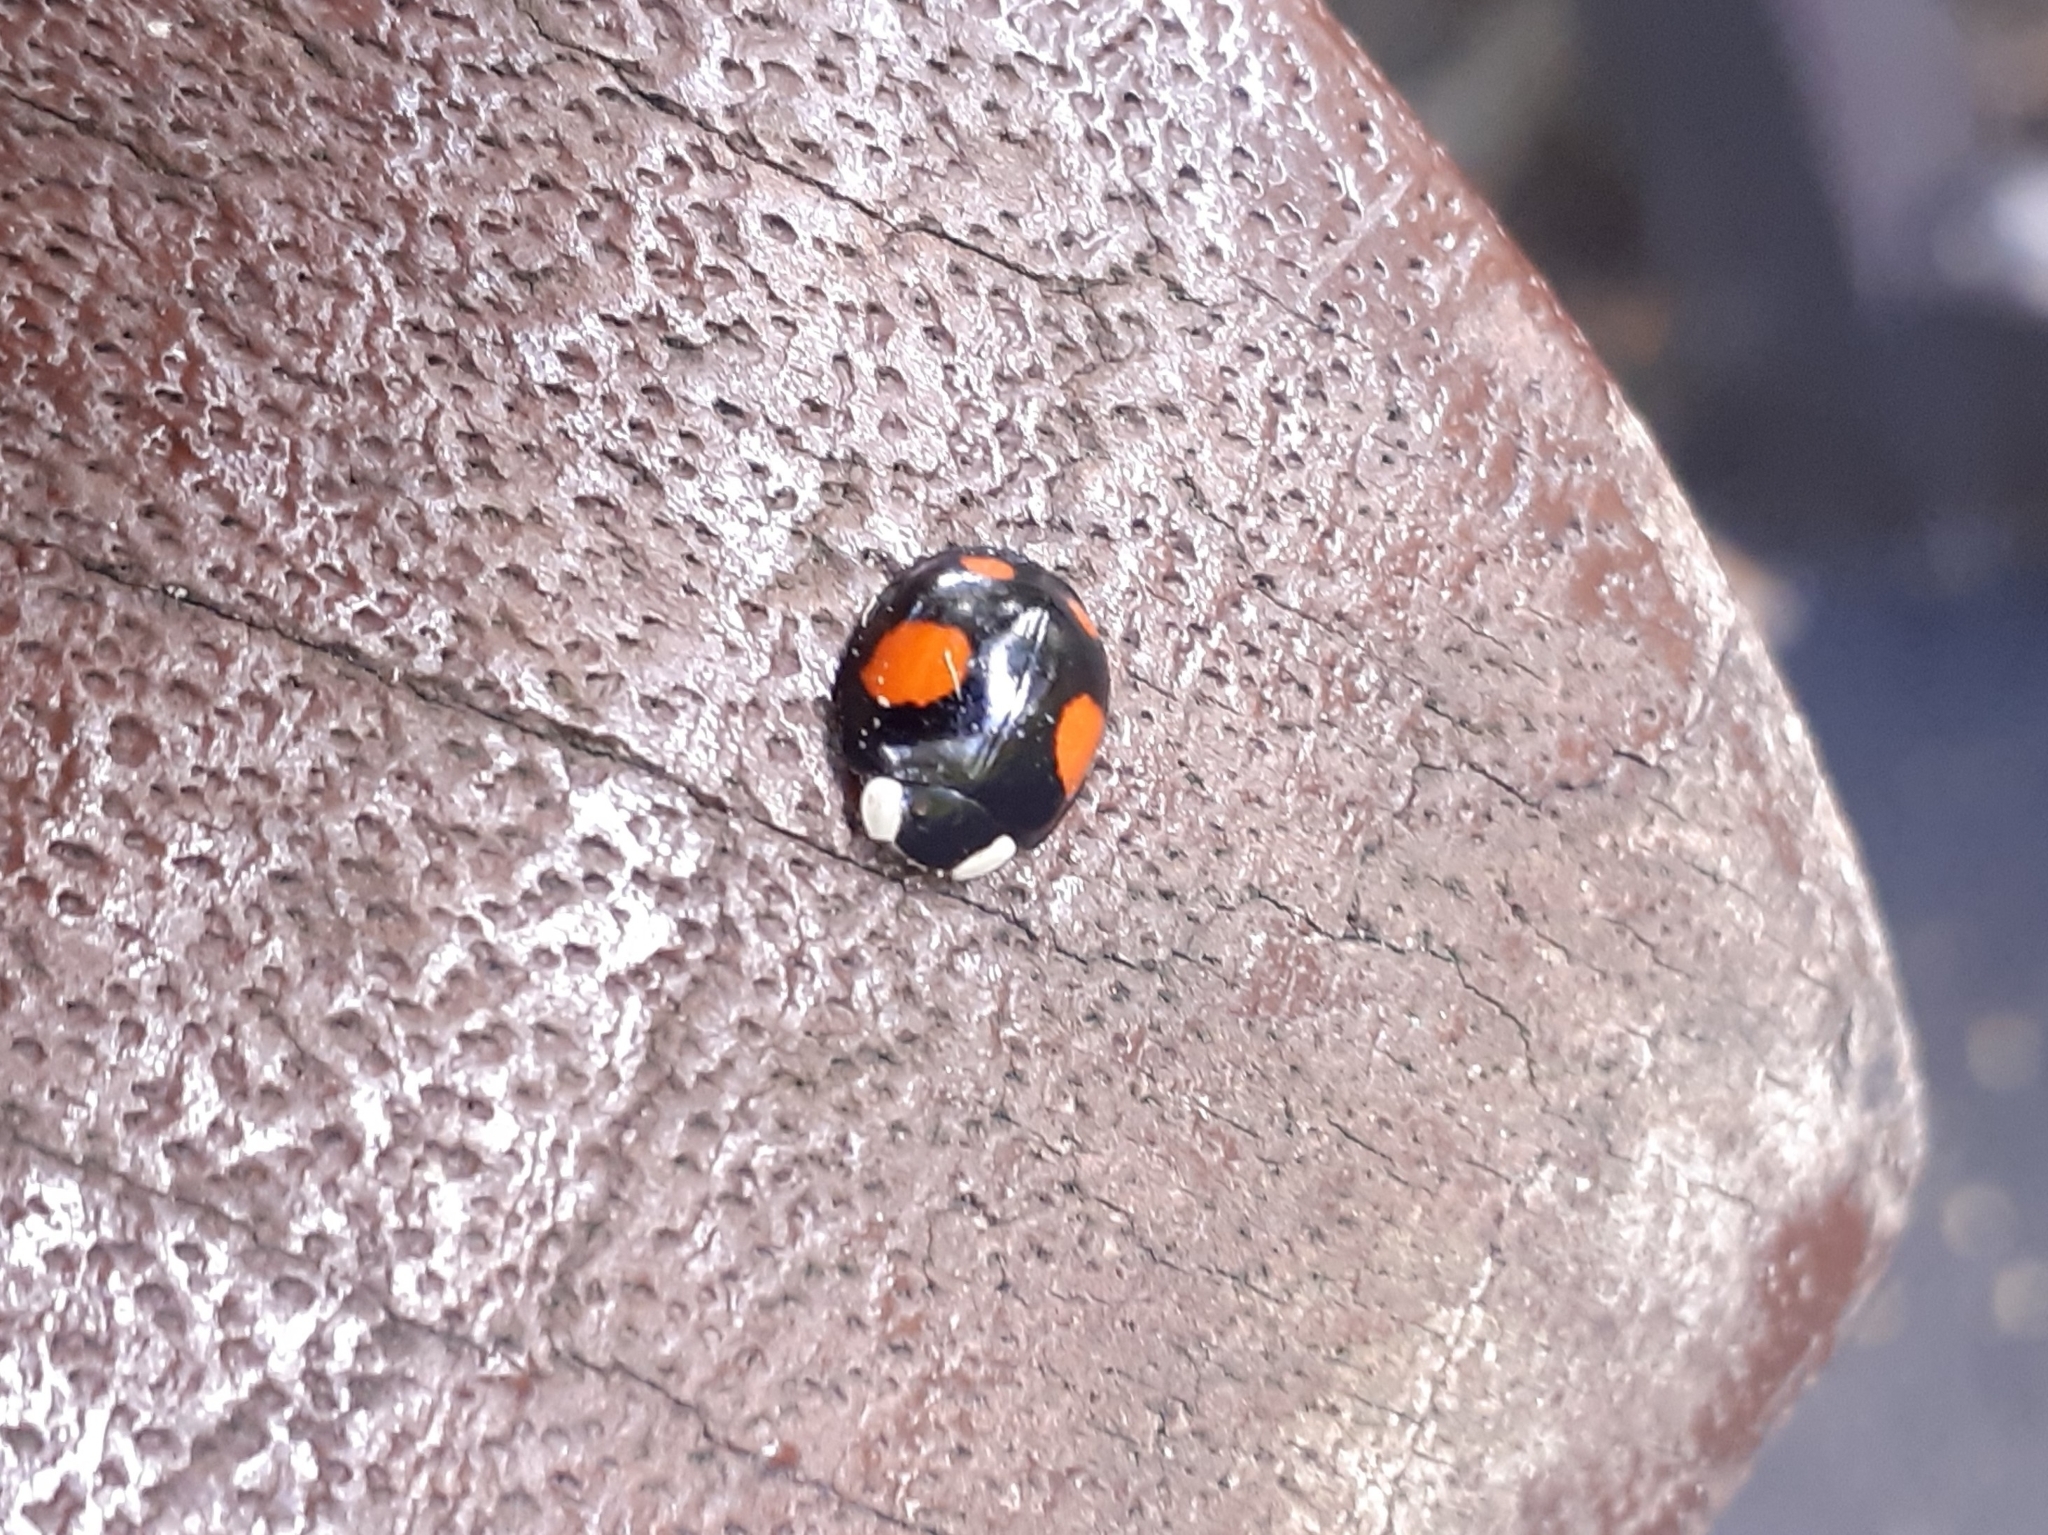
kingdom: Animalia
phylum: Arthropoda
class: Insecta
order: Coleoptera
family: Coccinellidae
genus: Harmonia
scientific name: Harmonia axyridis
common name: Harlequin ladybird
